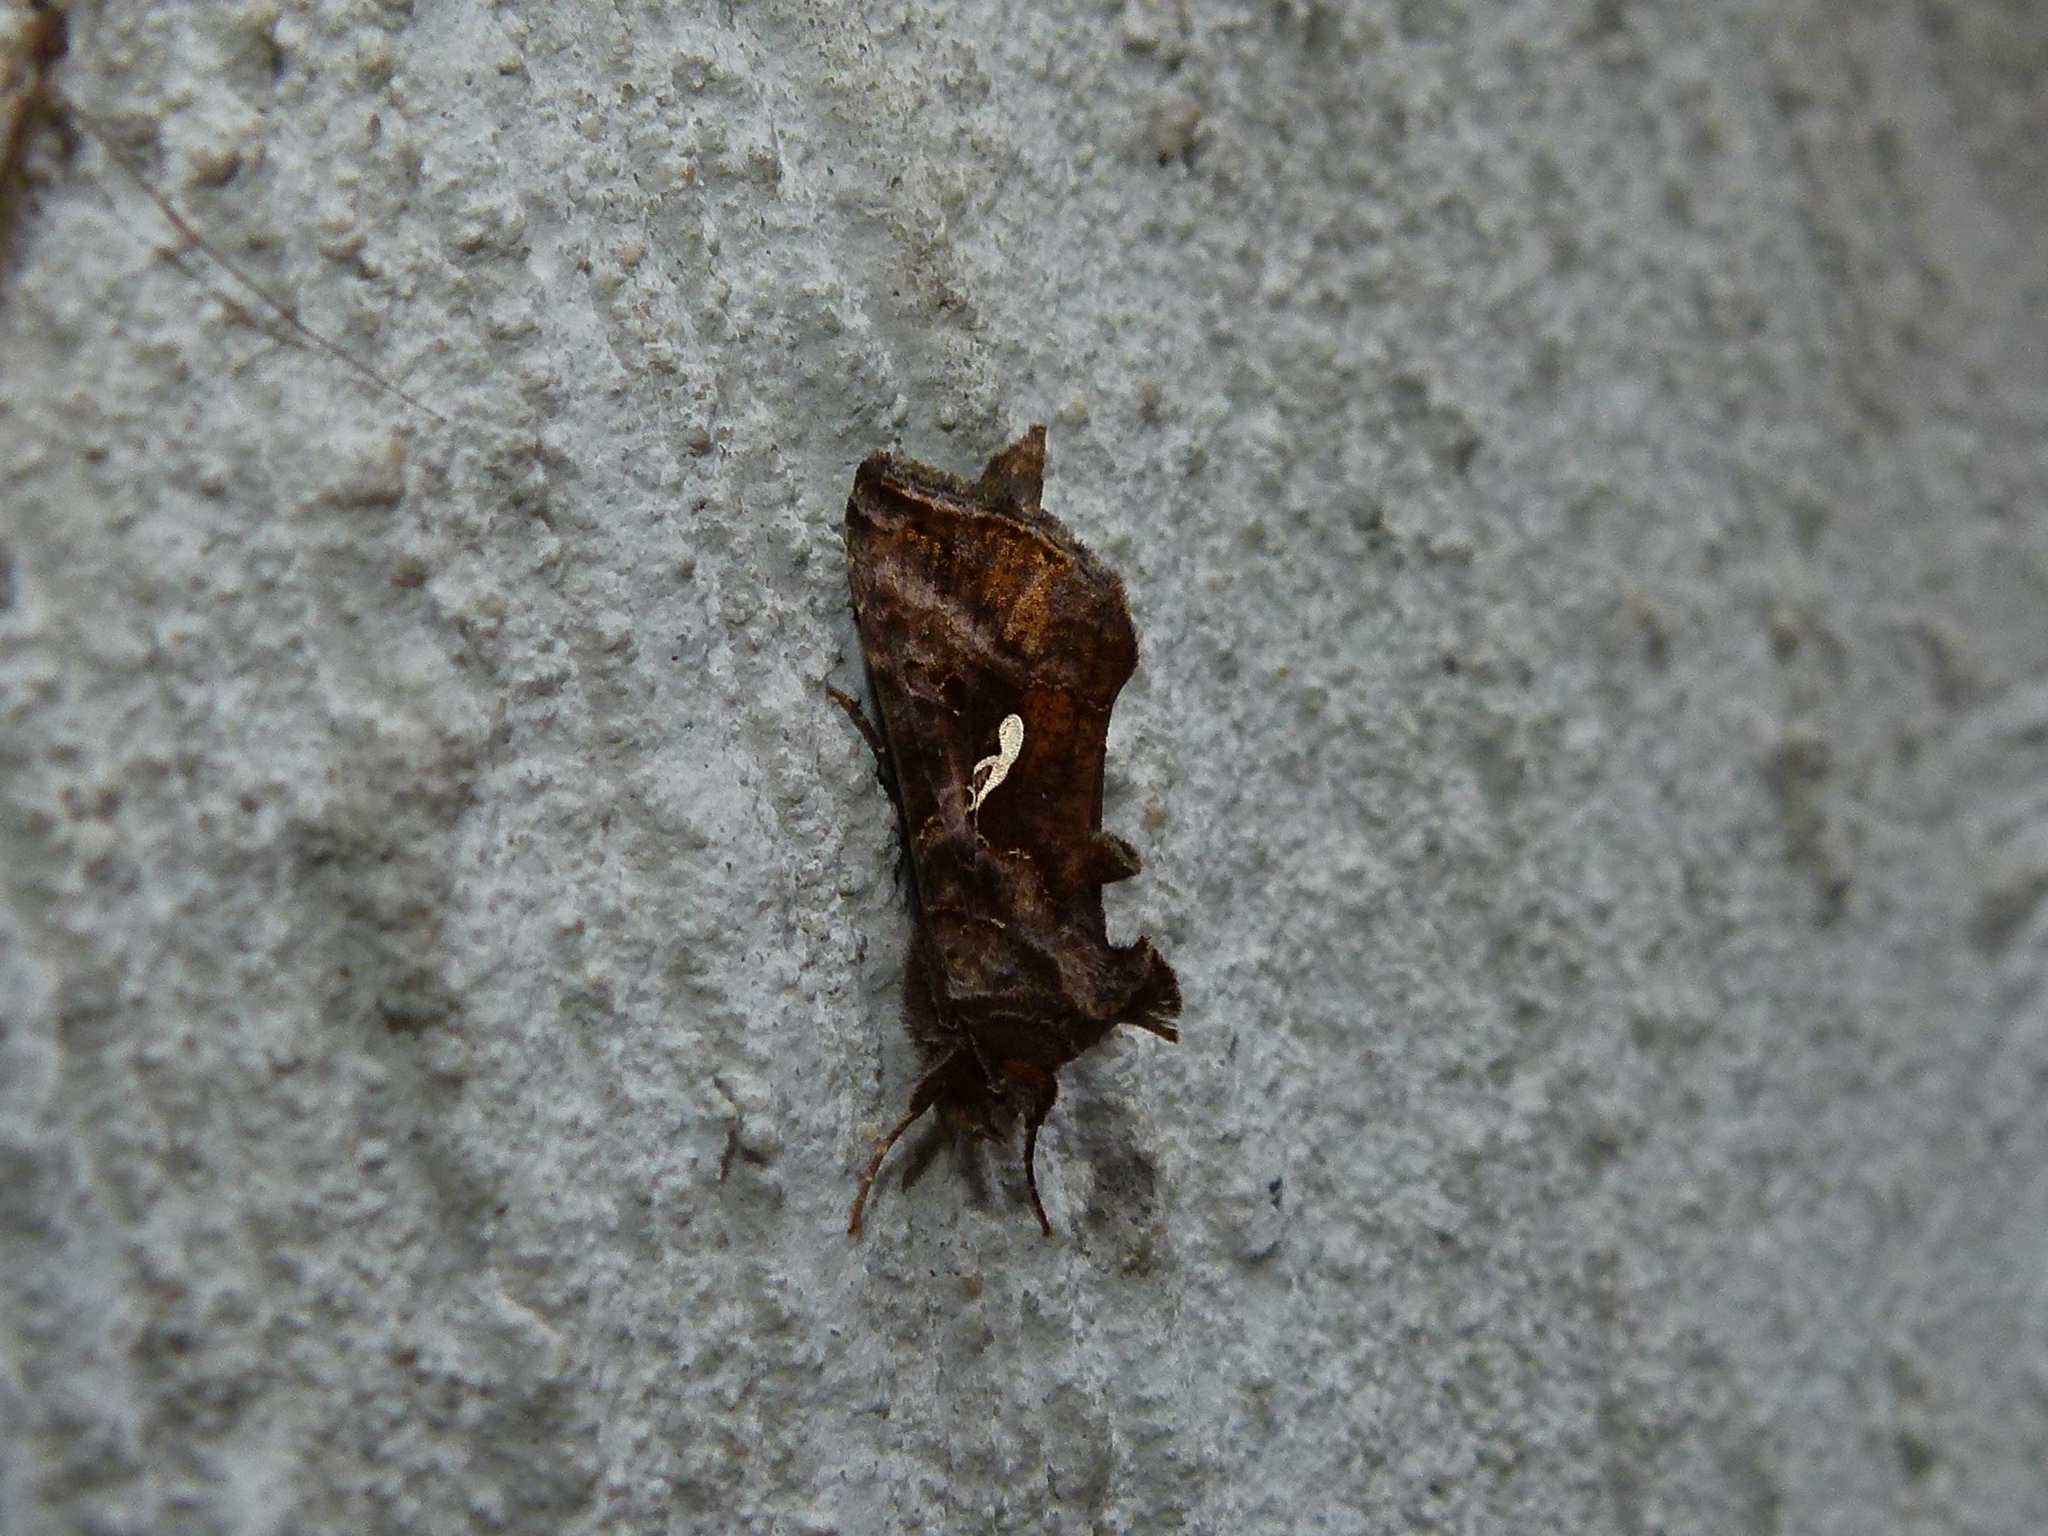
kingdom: Animalia
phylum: Arthropoda
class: Insecta
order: Lepidoptera
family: Noctuidae
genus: Autographa
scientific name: Autographa precationis
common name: Common looper moth
